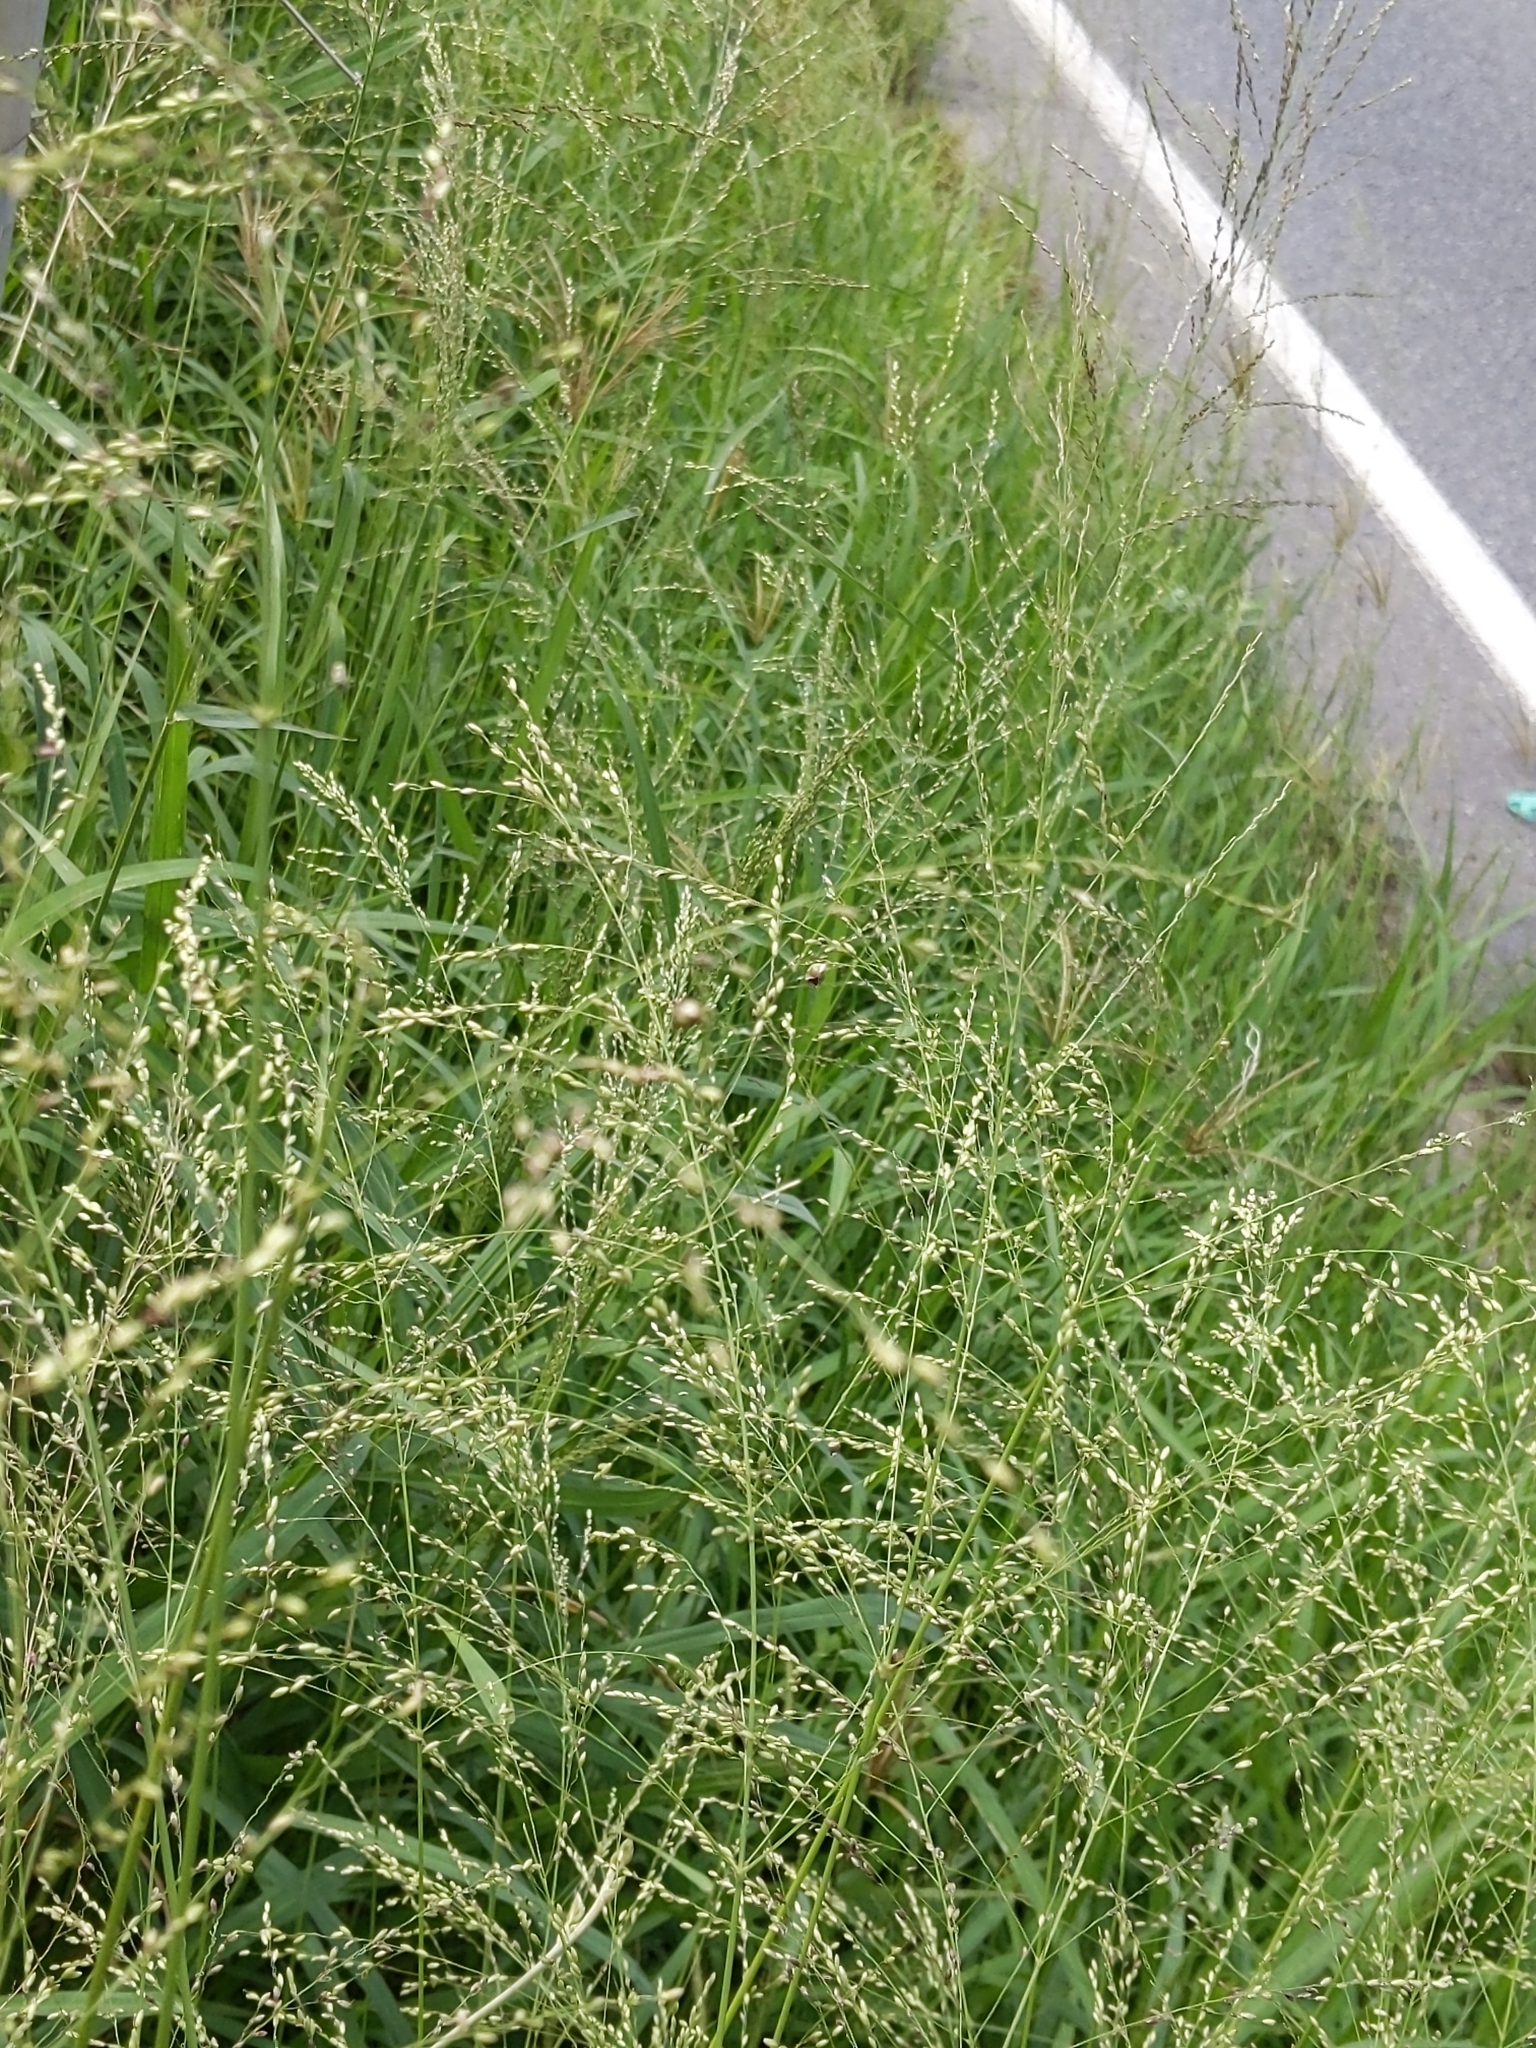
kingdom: Plantae
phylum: Tracheophyta
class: Liliopsida
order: Poales
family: Poaceae
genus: Megathyrsus
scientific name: Megathyrsus maximus
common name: Guineagrass
